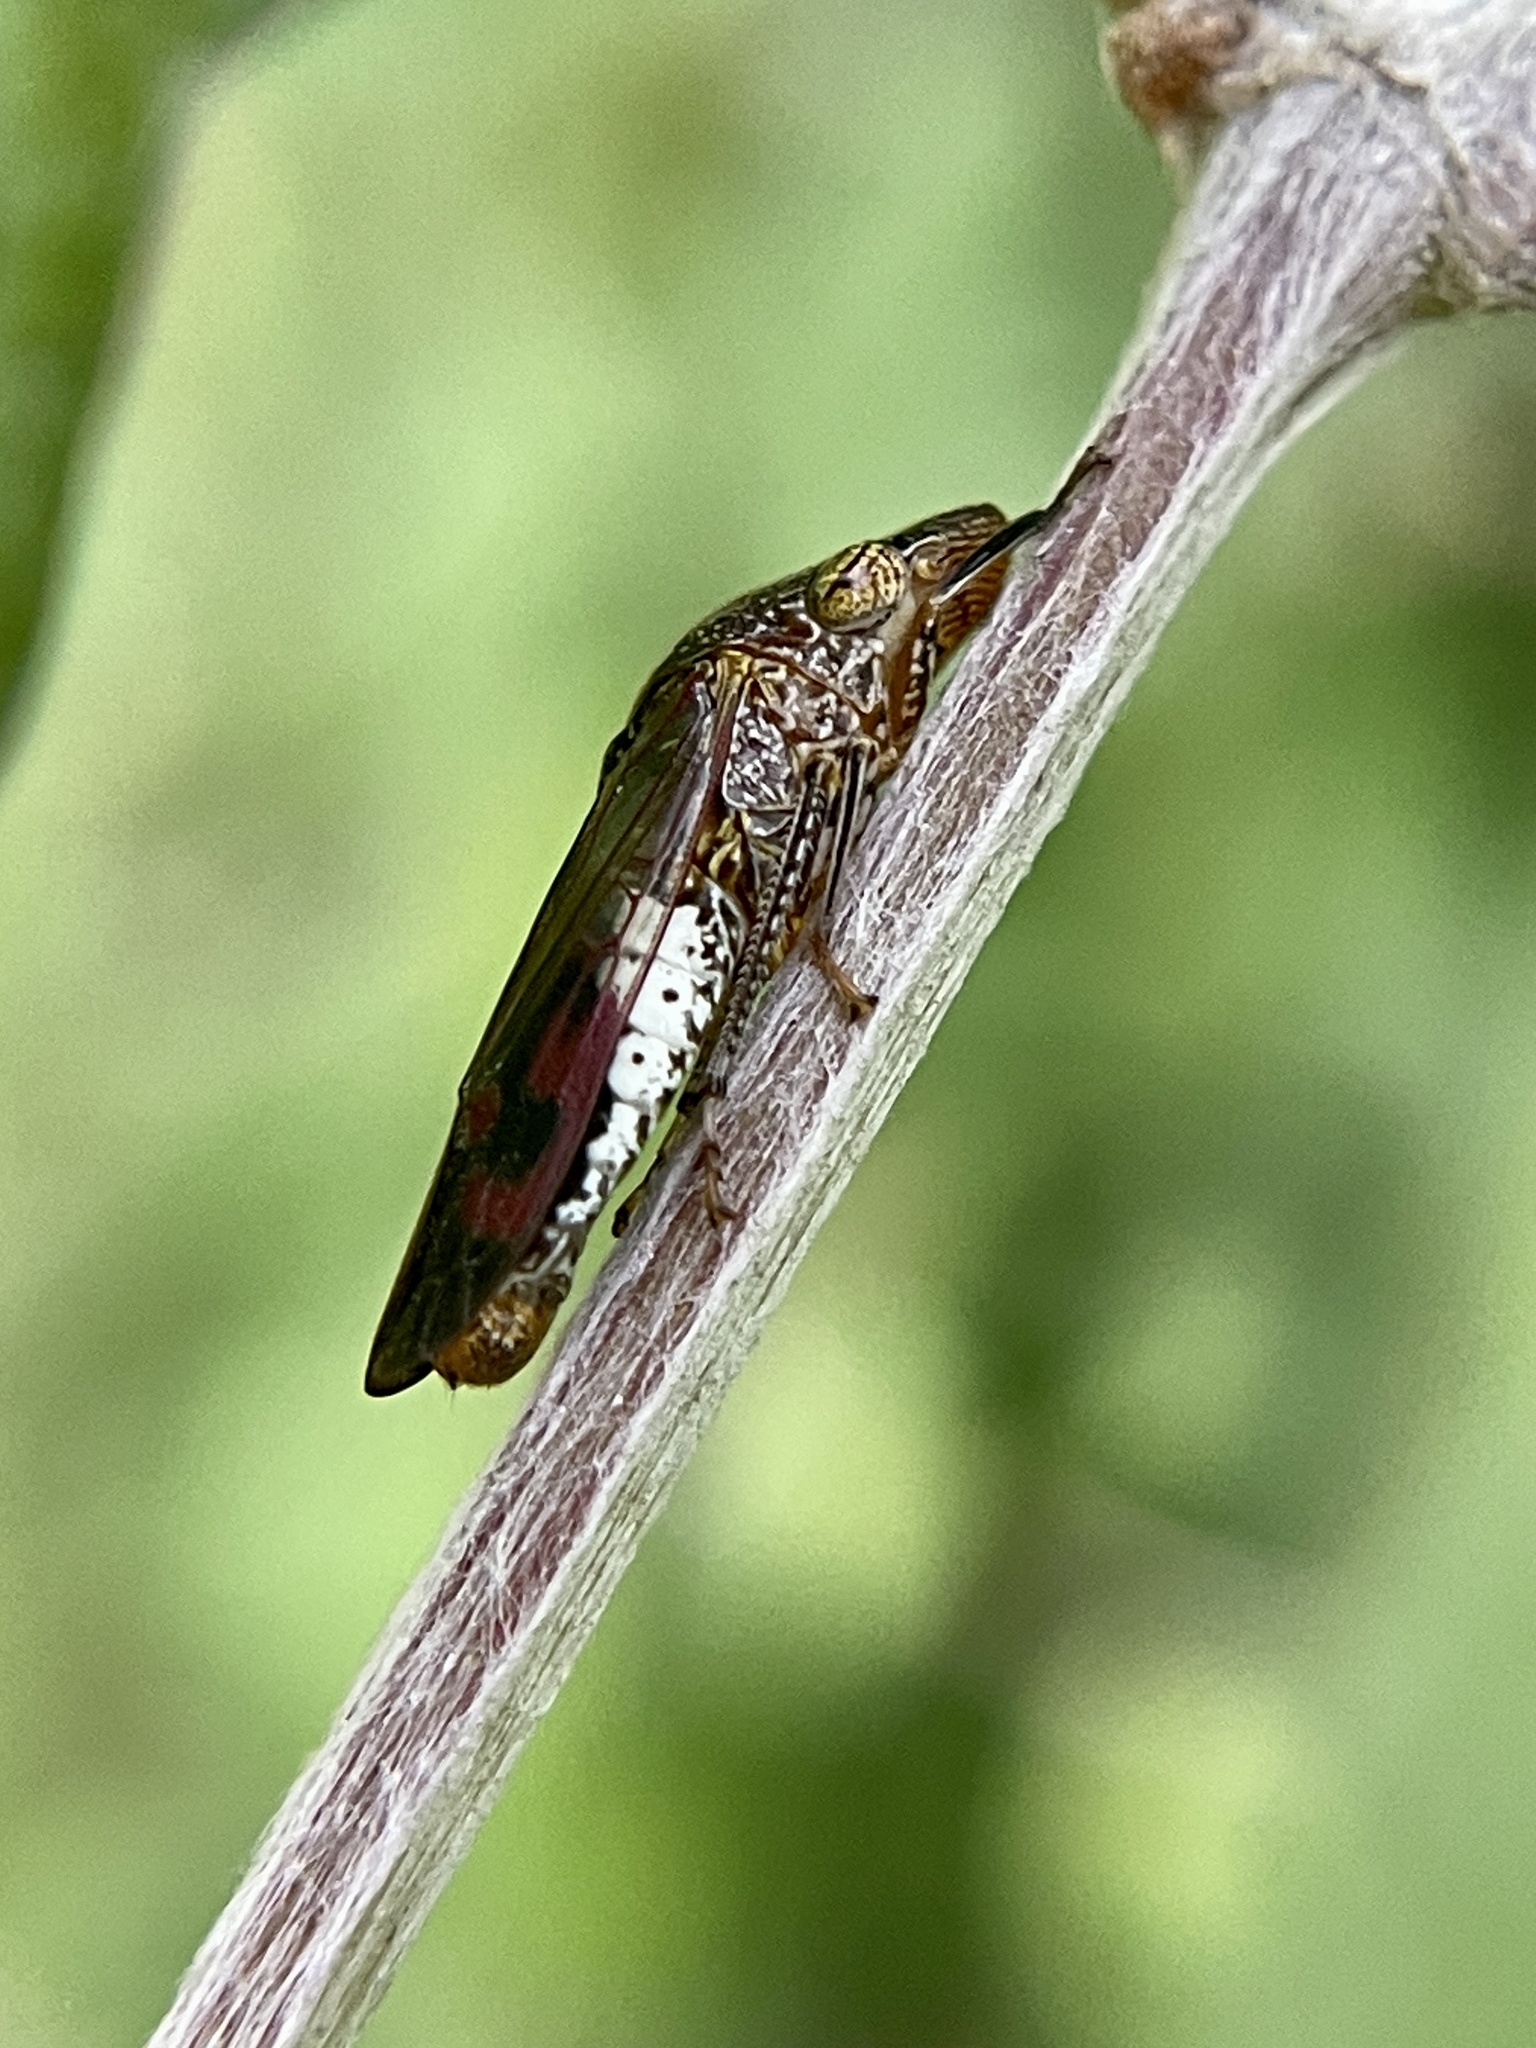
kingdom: Animalia
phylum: Arthropoda
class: Insecta
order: Hemiptera
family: Cicadellidae
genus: Homalodisca
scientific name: Homalodisca vitripennis
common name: Glassy-winged sharpshooter
